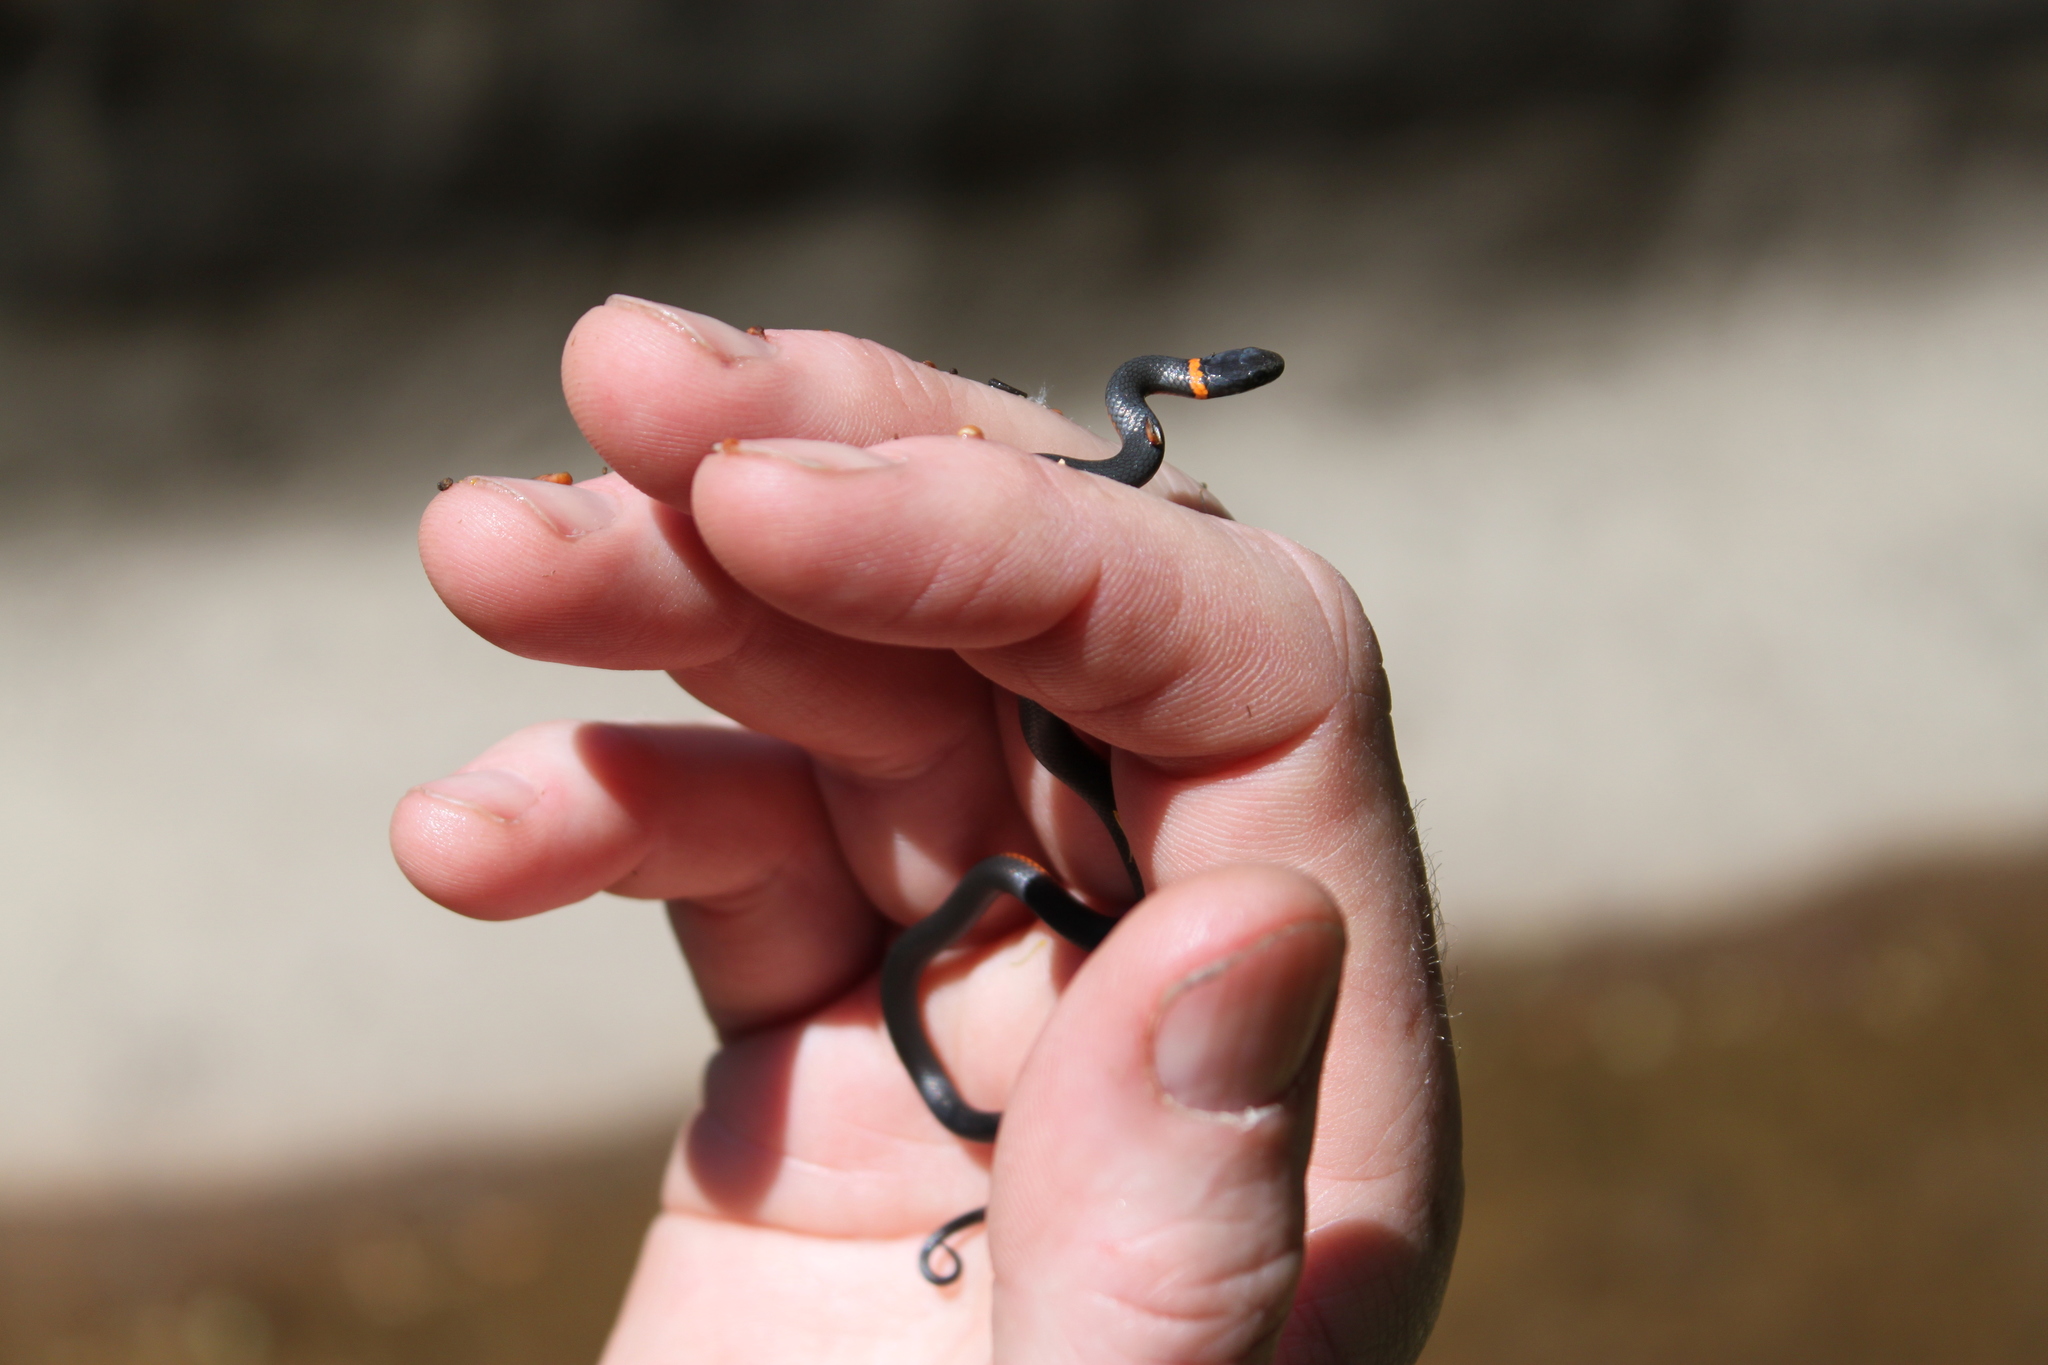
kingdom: Animalia
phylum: Chordata
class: Squamata
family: Colubridae
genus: Diadophis
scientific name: Diadophis punctatus
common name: Ringneck snake
